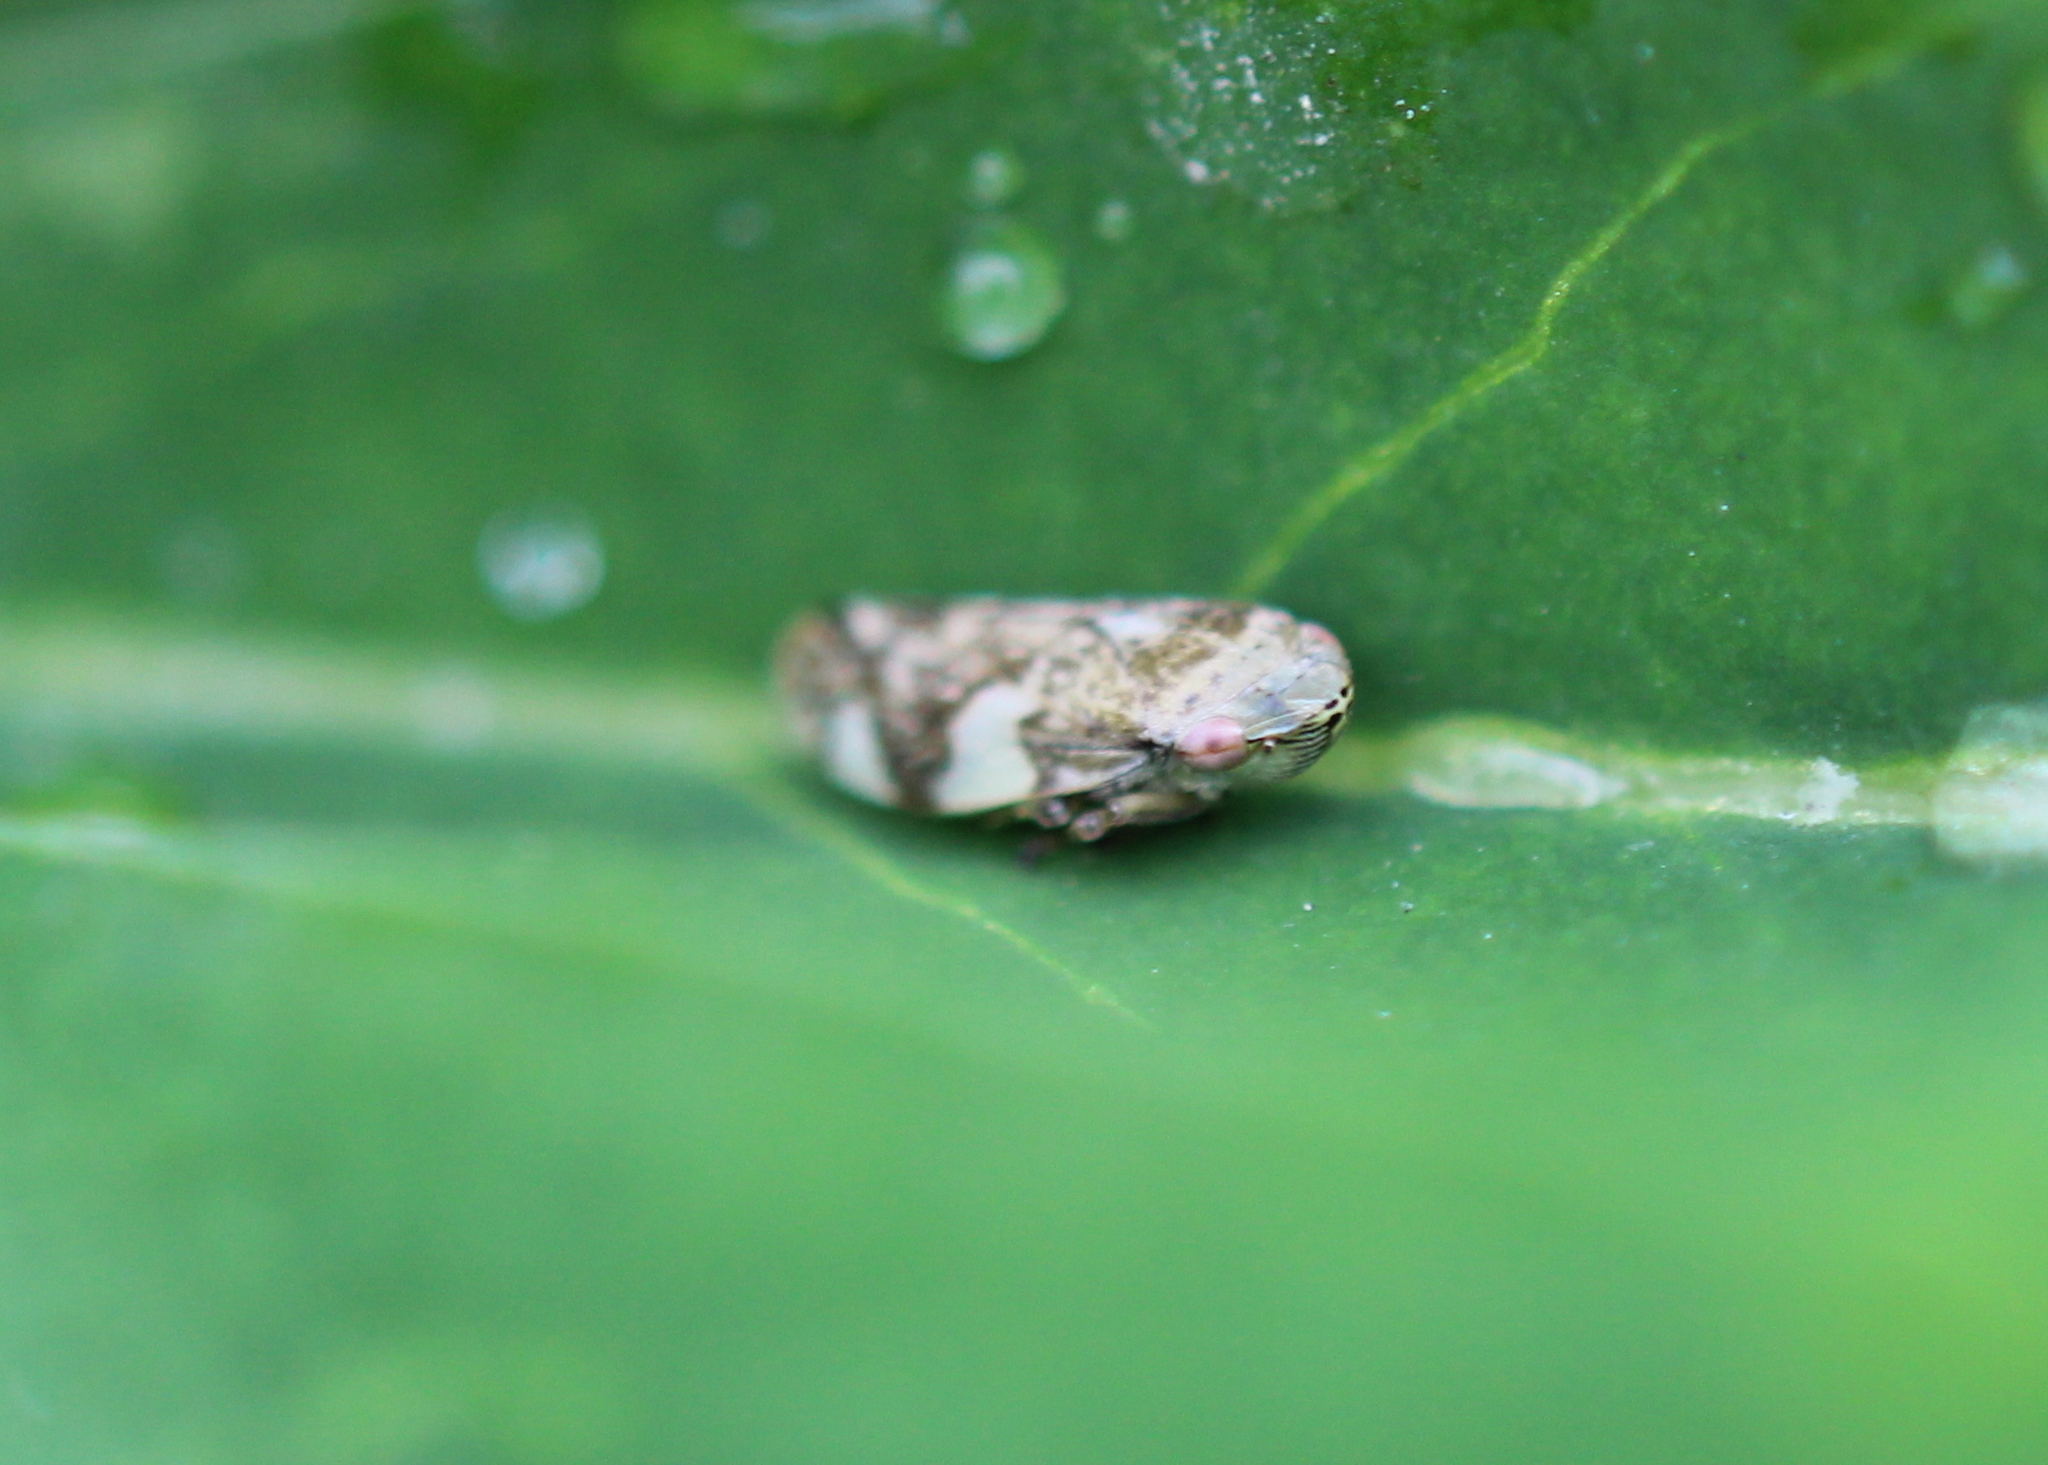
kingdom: Animalia
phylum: Arthropoda
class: Insecta
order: Hemiptera
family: Aphrophoridae
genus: Philaenus
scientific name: Philaenus spumarius
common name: Meadow spittlebug
